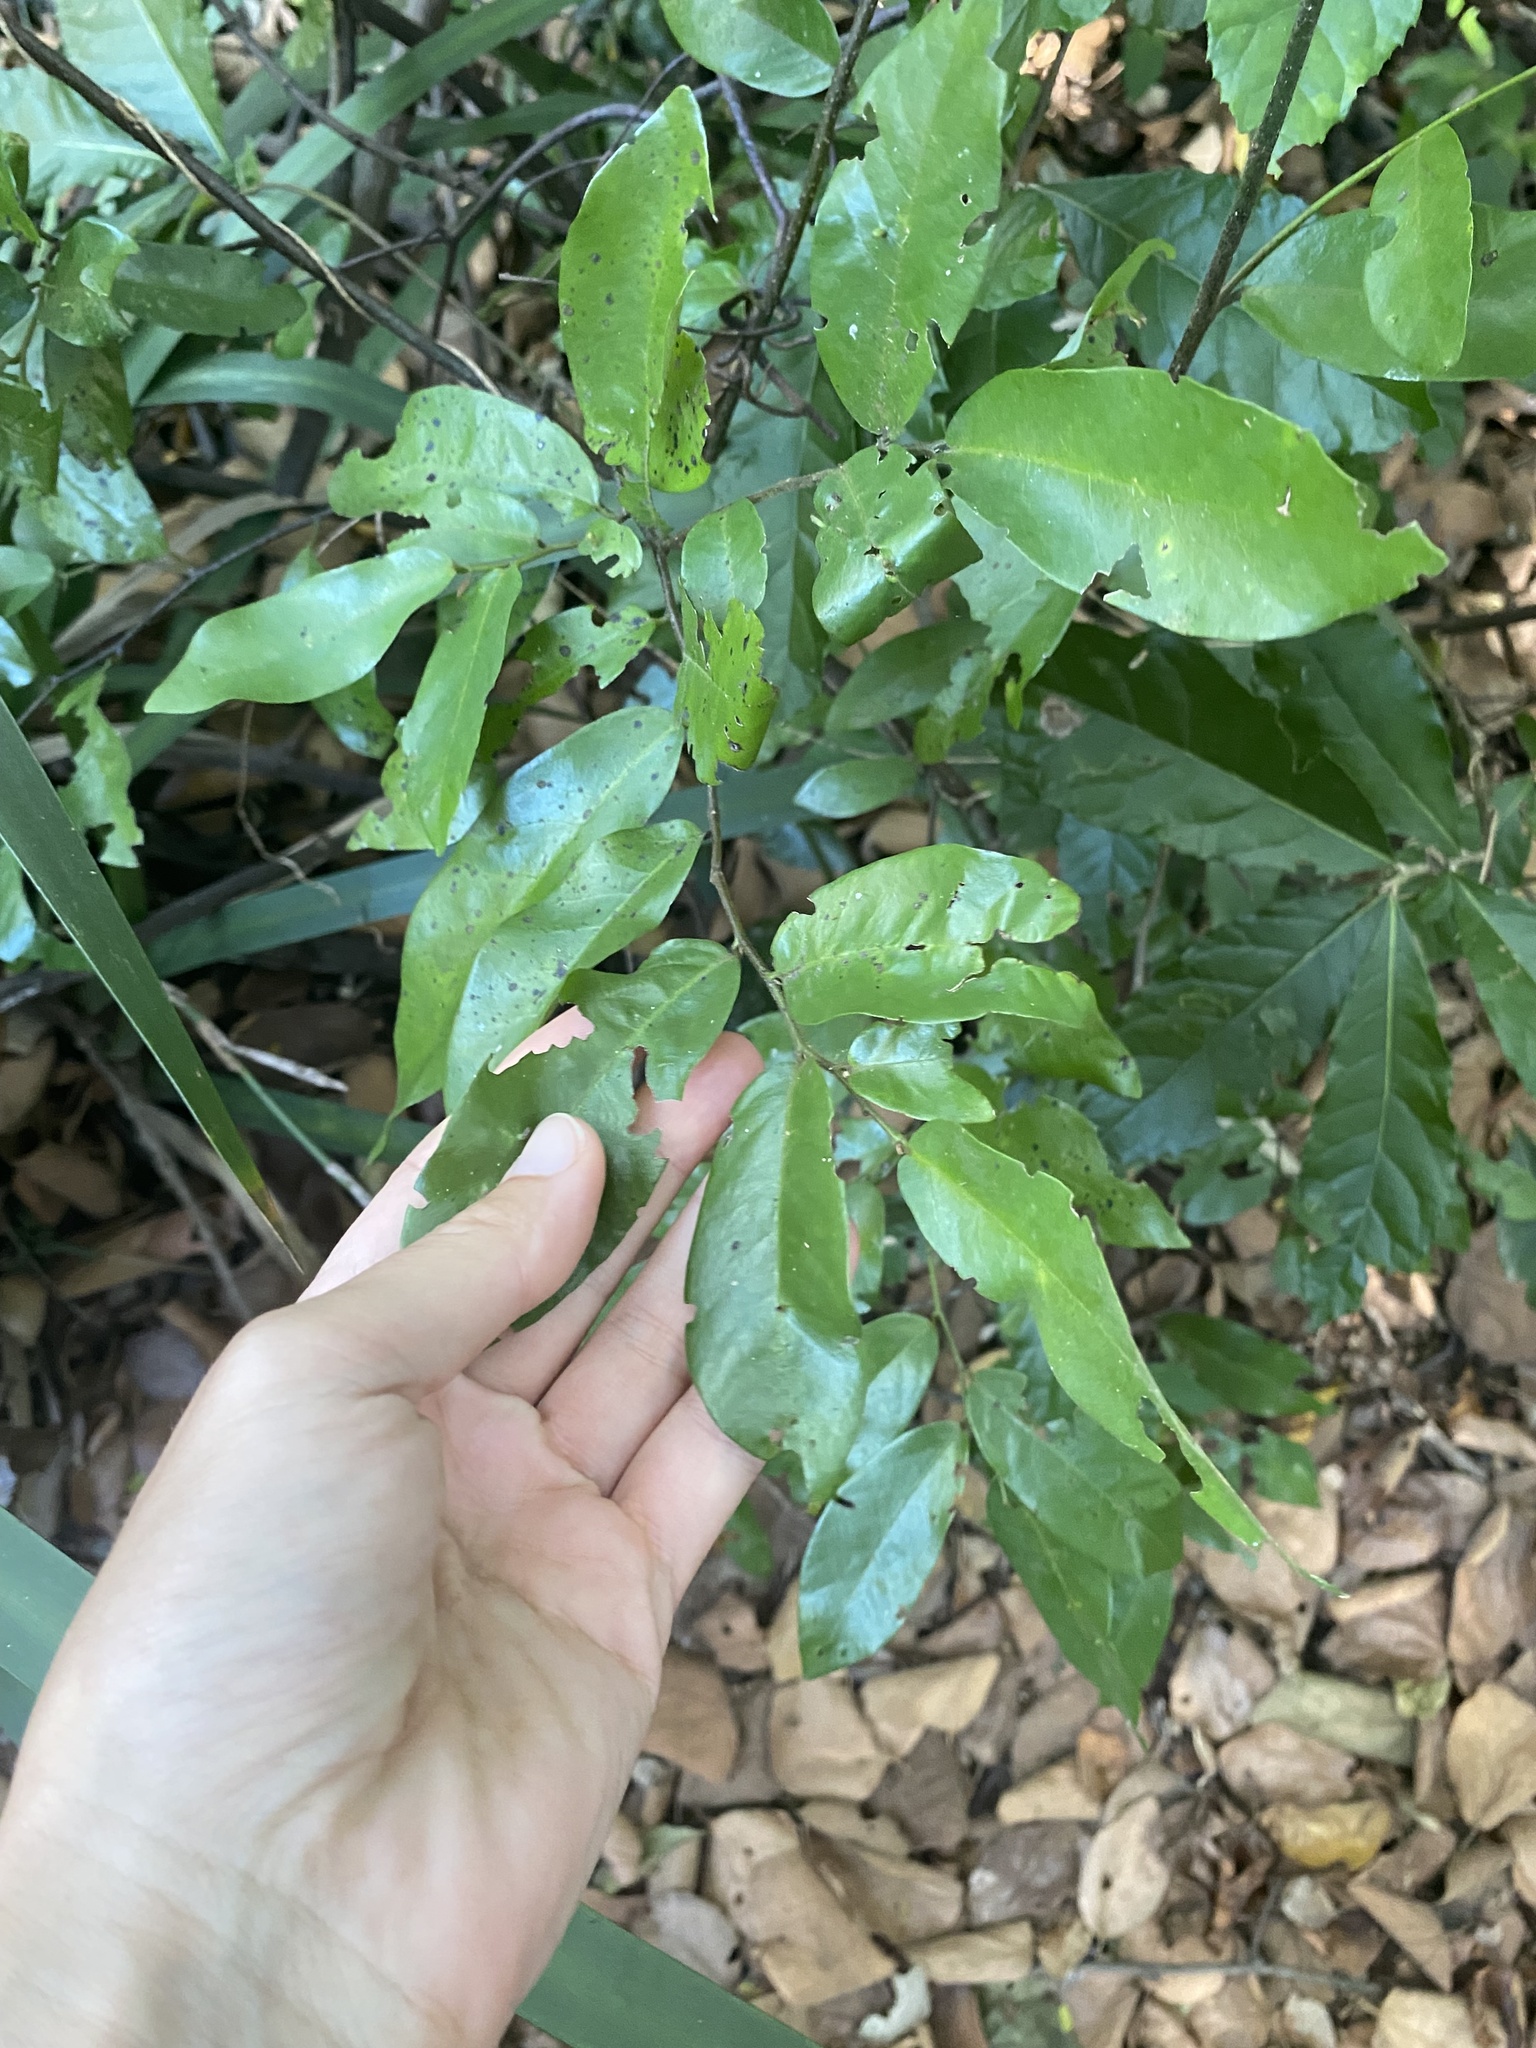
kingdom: Plantae
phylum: Tracheophyta
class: Magnoliopsida
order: Magnoliales
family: Annonaceae
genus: Monanthotaxis
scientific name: Monanthotaxis caffra
